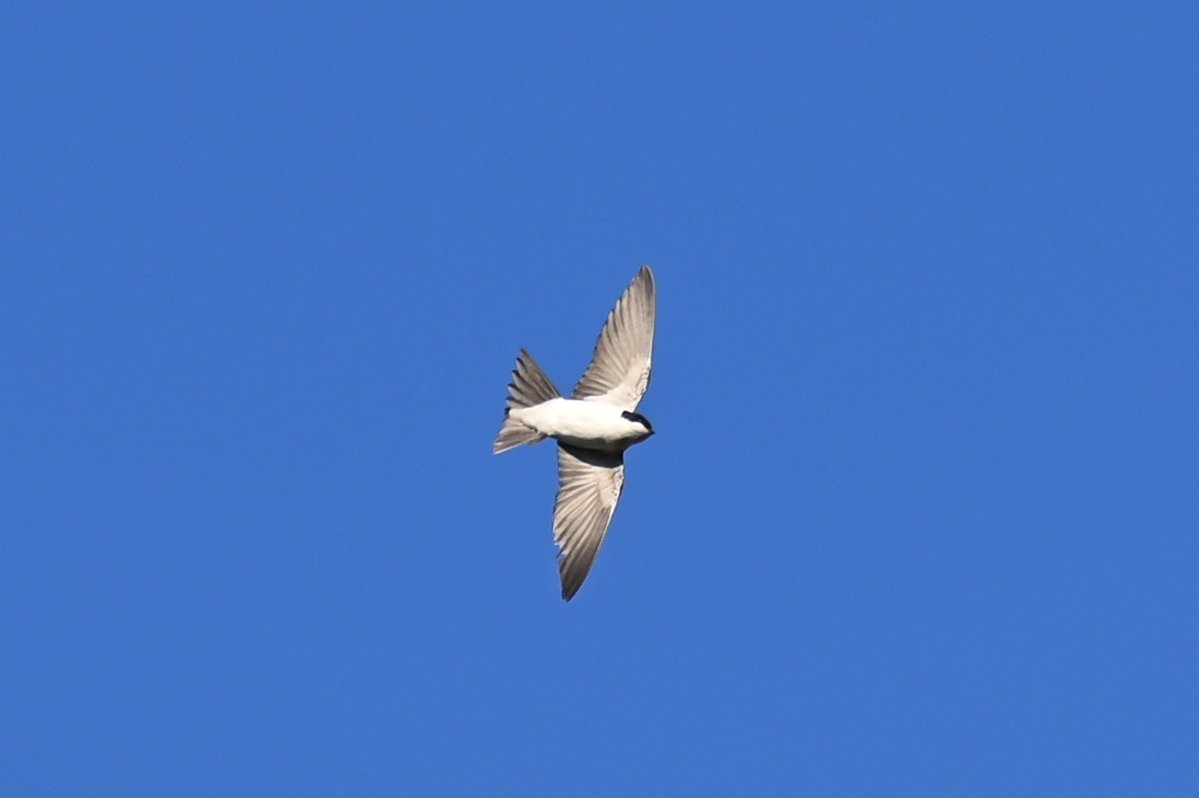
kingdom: Animalia
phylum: Chordata
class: Aves
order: Passeriformes
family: Hirundinidae
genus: Delichon
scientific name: Delichon urbicum
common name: Common house martin
